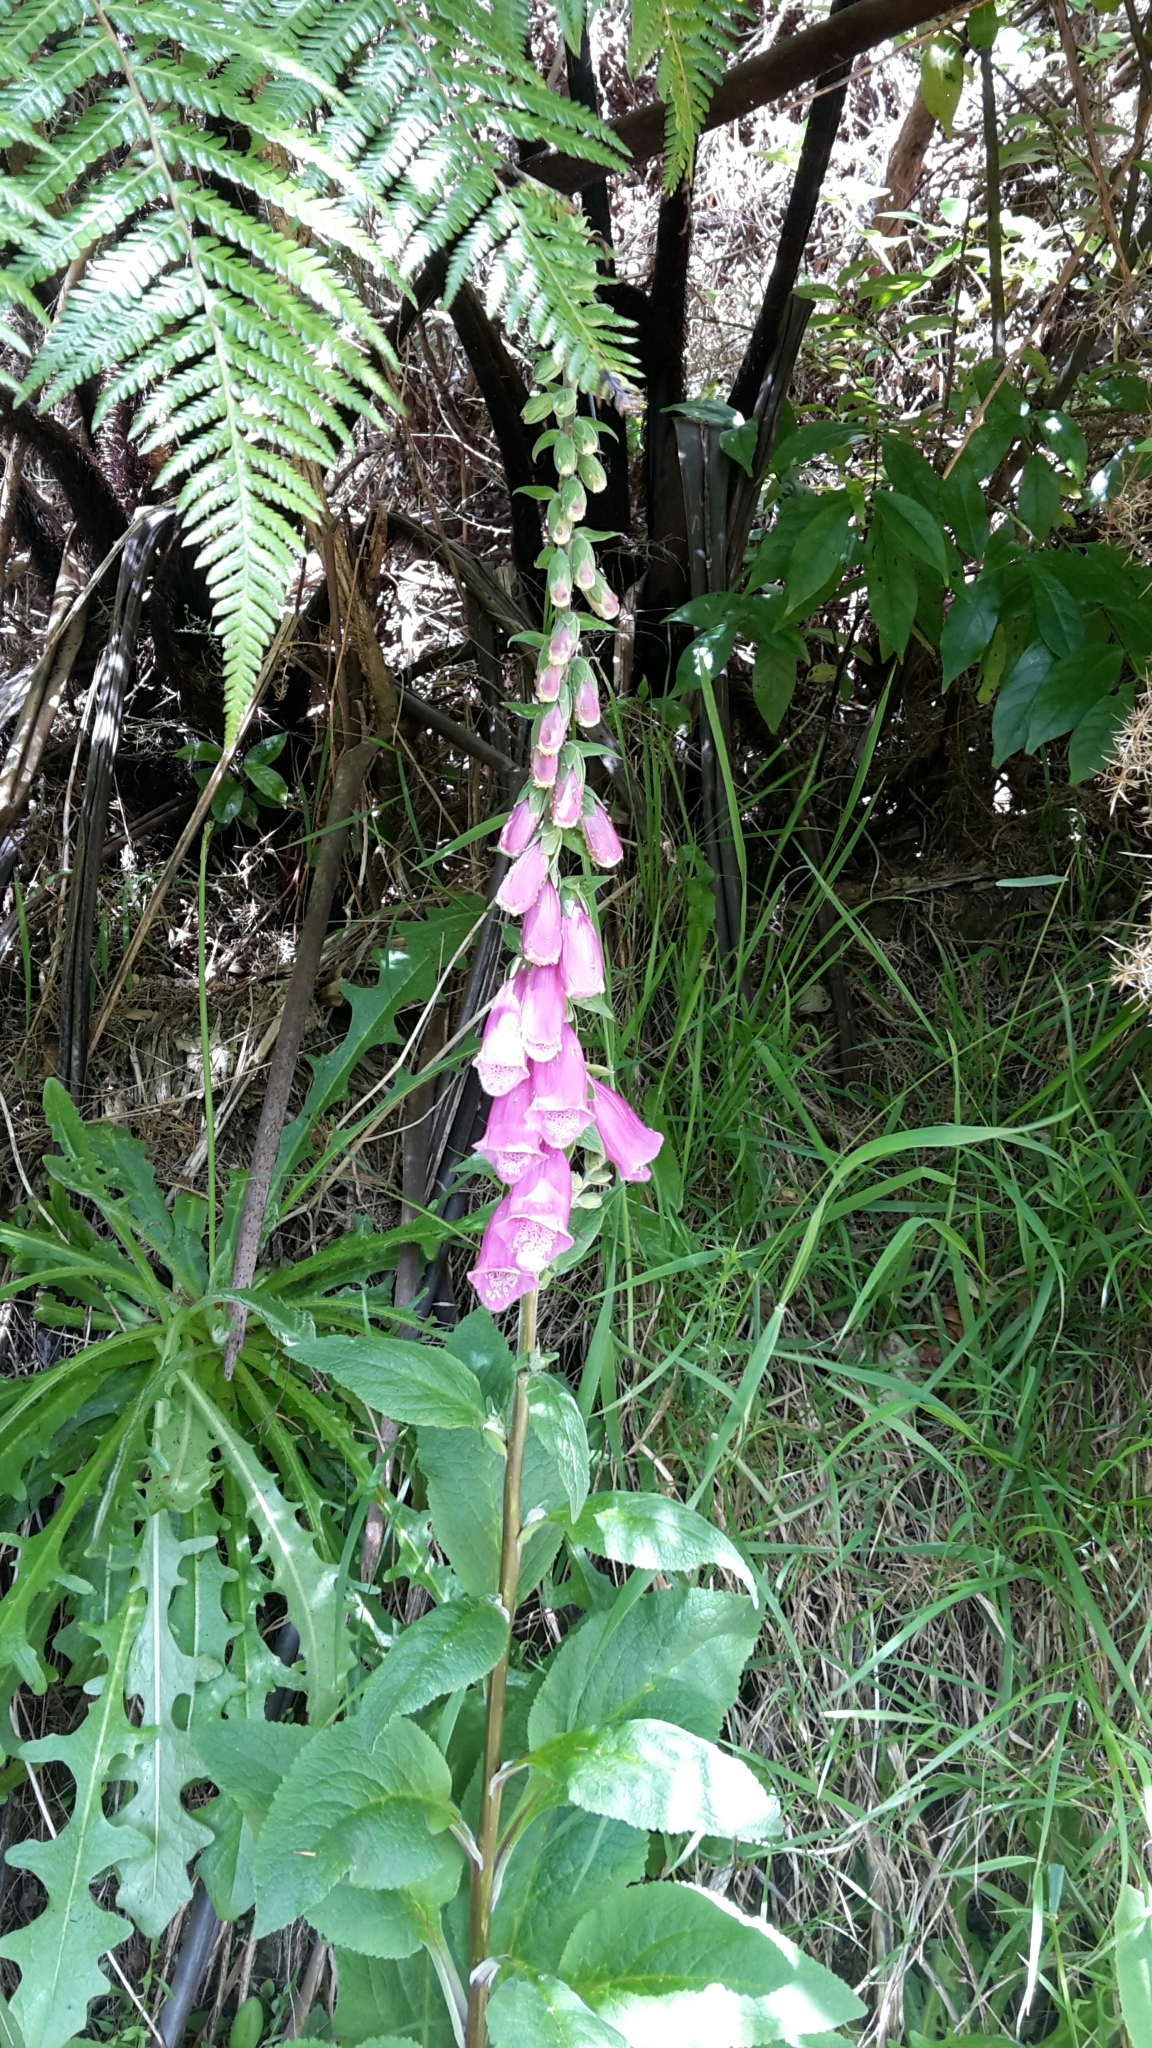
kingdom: Plantae
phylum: Tracheophyta
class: Magnoliopsida
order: Lamiales
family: Plantaginaceae
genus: Digitalis
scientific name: Digitalis purpurea
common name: Foxglove
